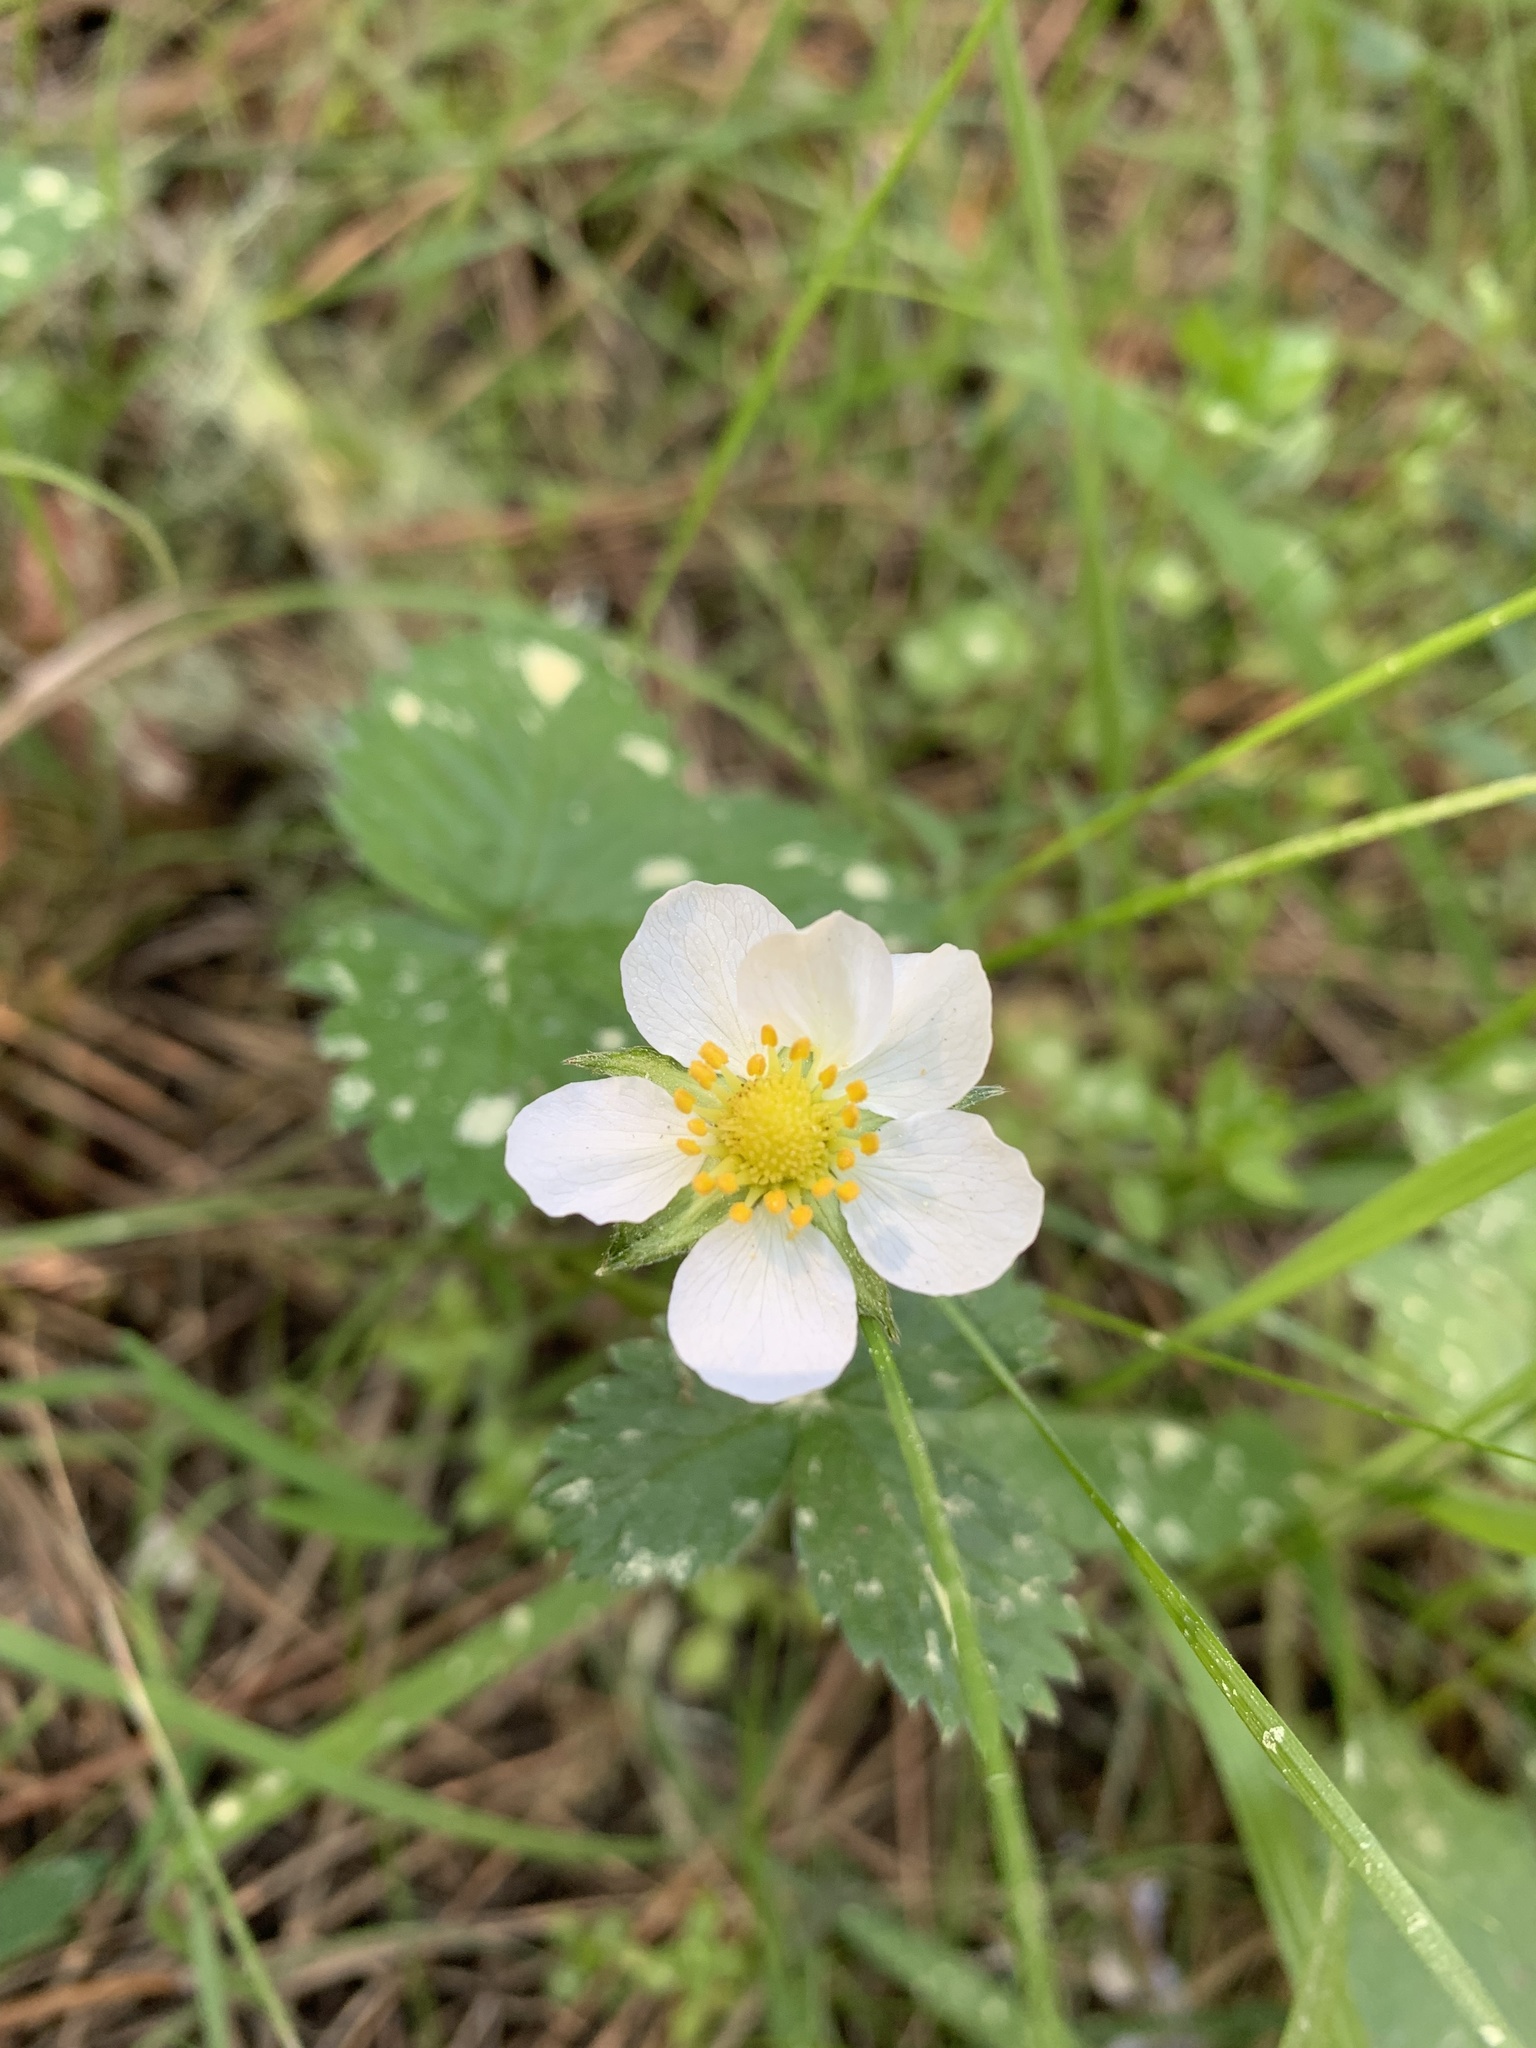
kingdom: Plantae
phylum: Tracheophyta
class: Magnoliopsida
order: Rosales
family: Rosaceae
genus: Fragaria
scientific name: Fragaria vesca
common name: Wild strawberry
